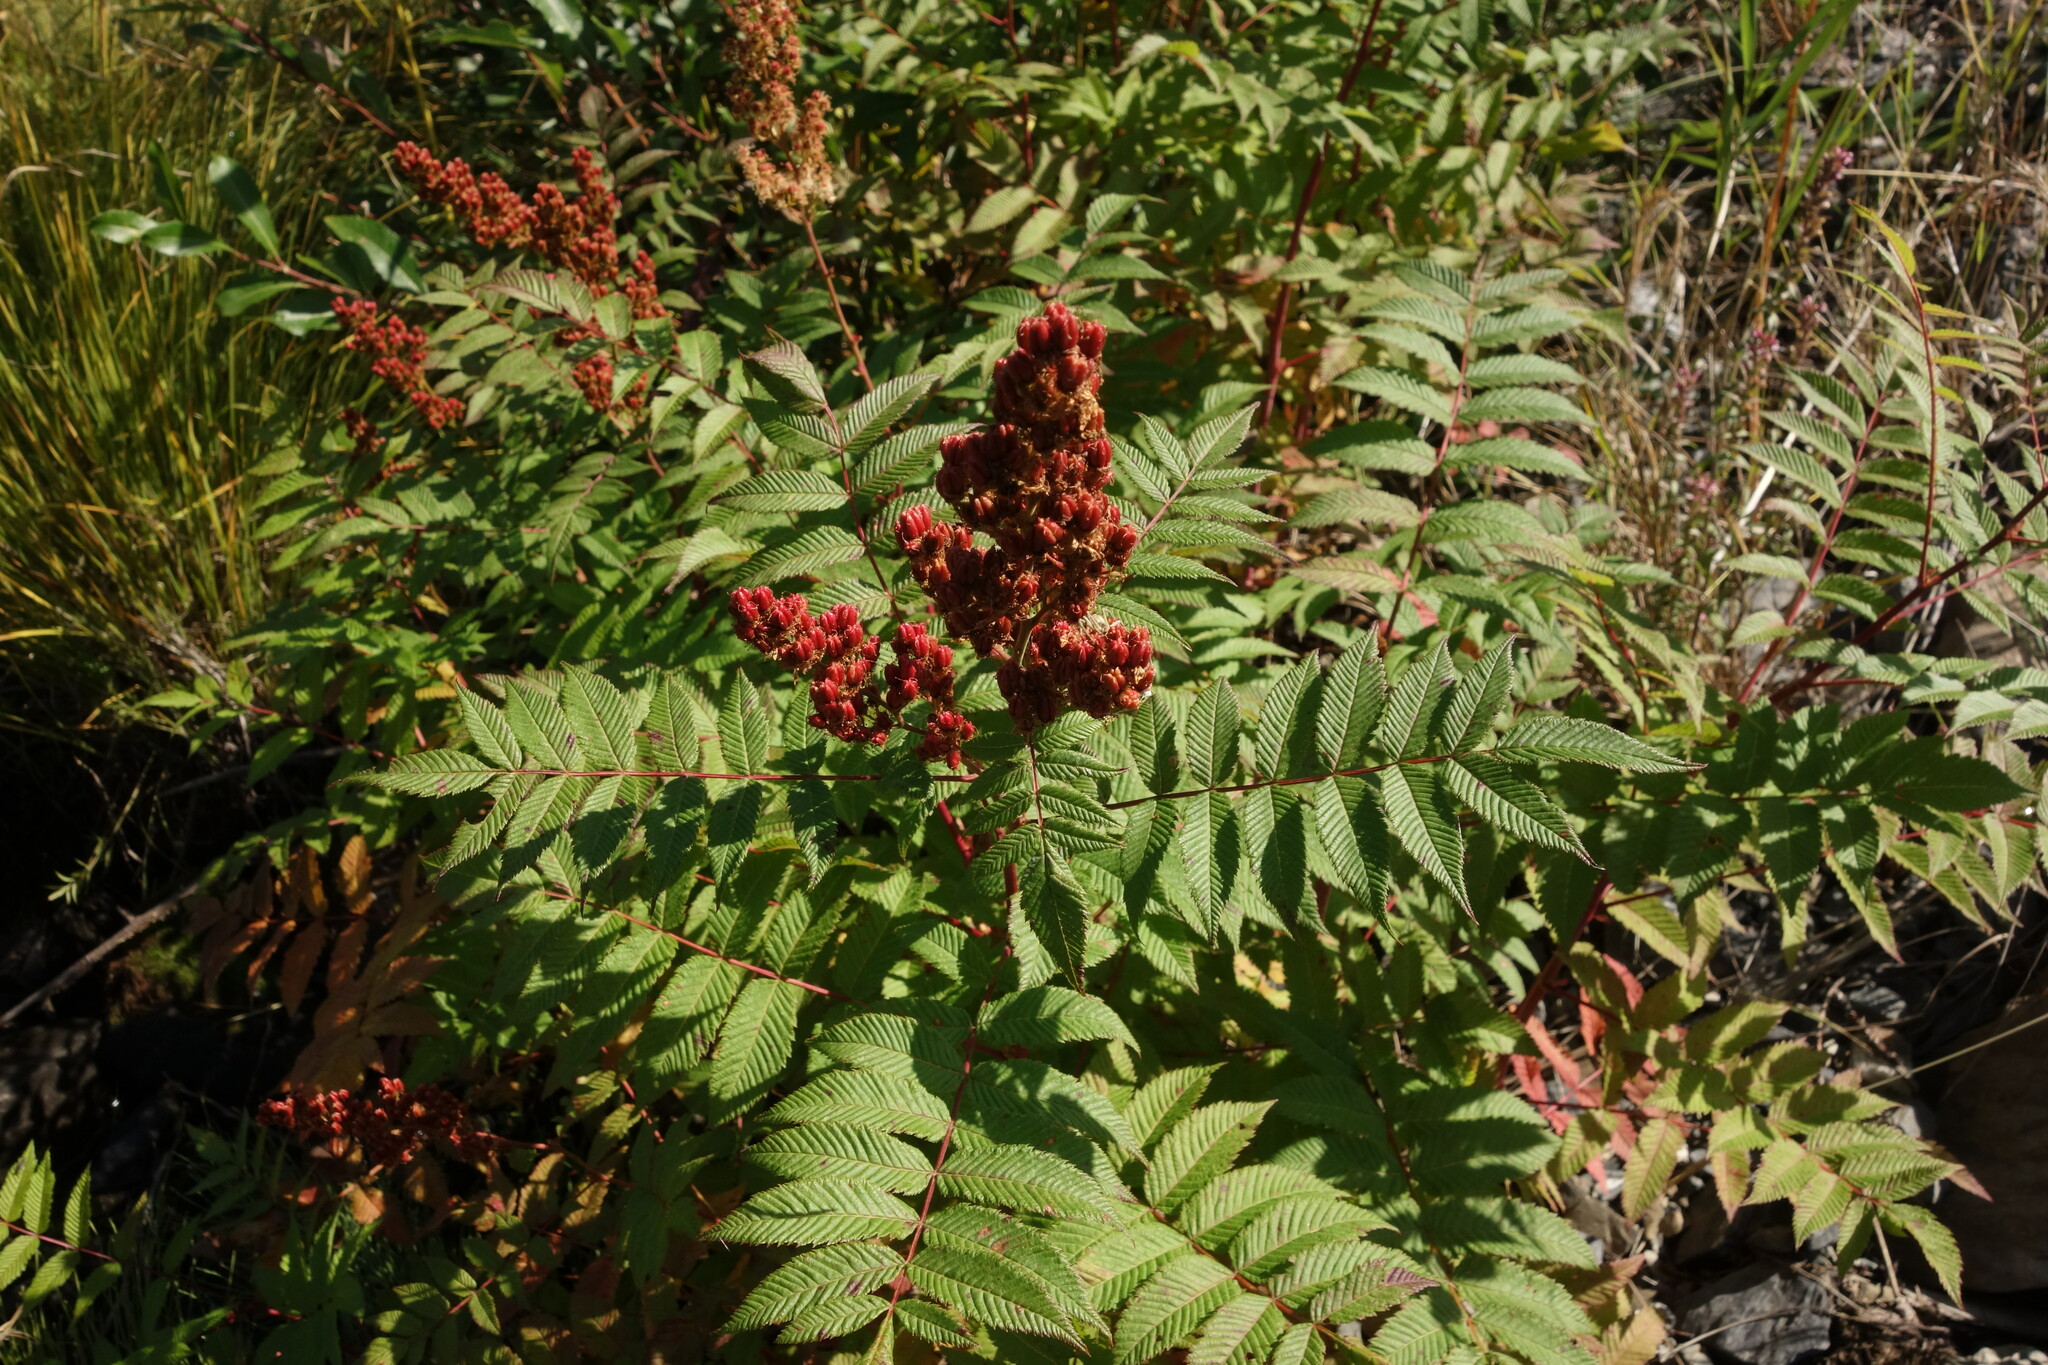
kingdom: Plantae
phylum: Tracheophyta
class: Magnoliopsida
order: Rosales
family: Rosaceae
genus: Sorbaria
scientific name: Sorbaria sorbifolia
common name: False spiraea
